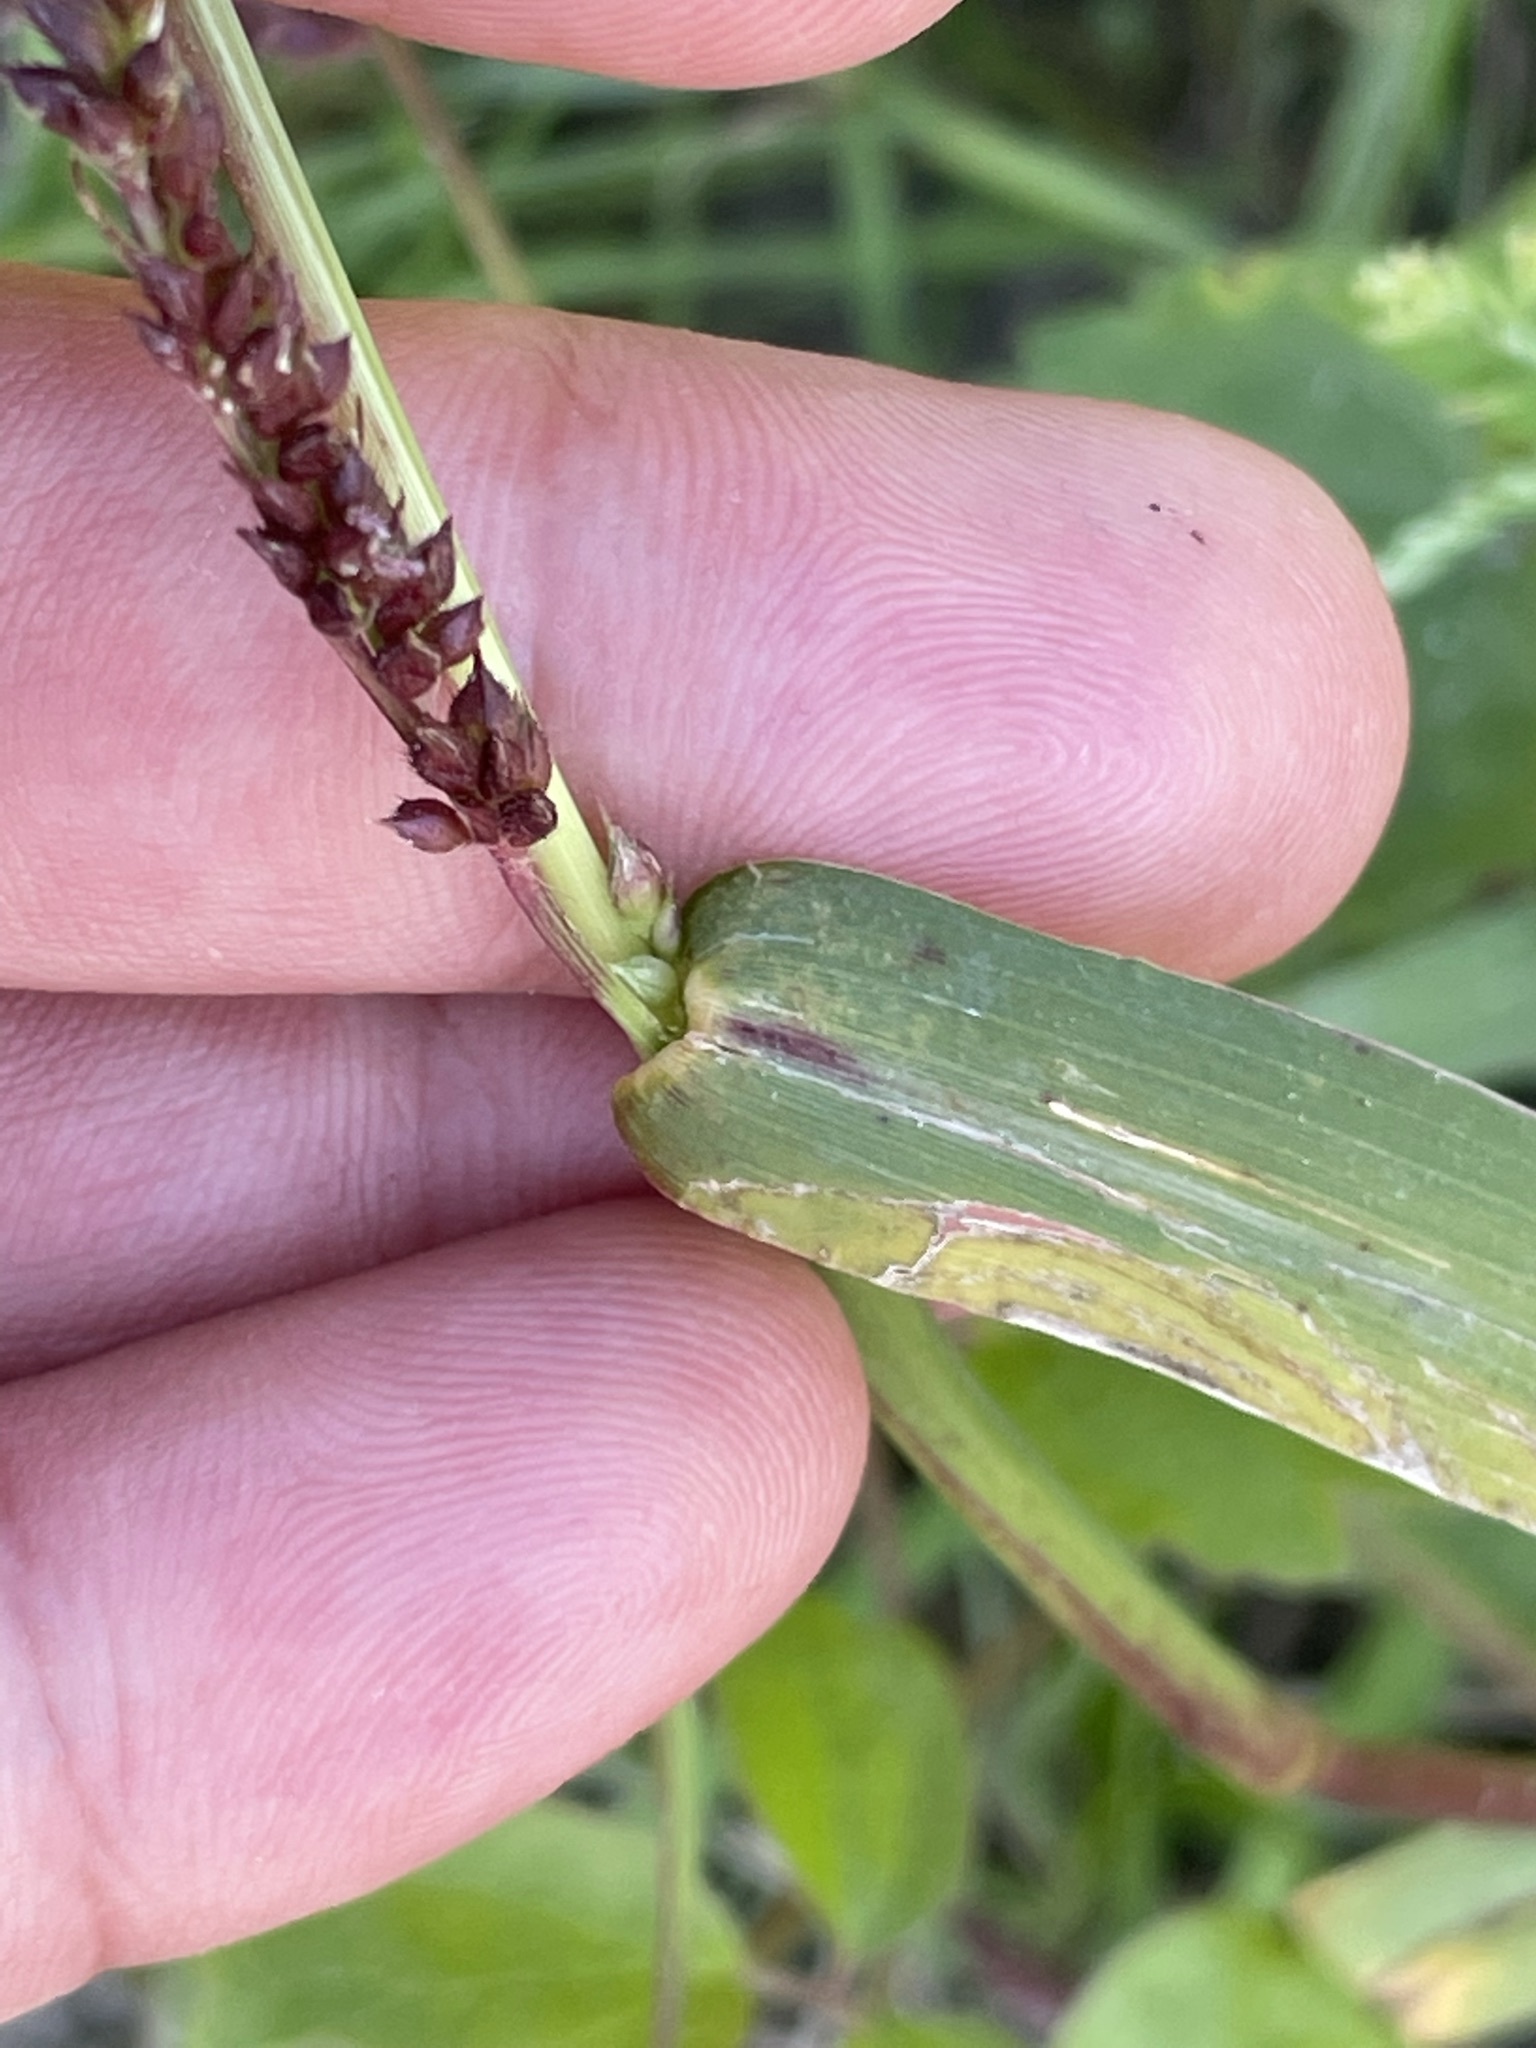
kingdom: Plantae
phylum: Tracheophyta
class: Liliopsida
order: Poales
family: Poaceae
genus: Echinochloa
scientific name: Echinochloa crus-galli
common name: Cockspur
